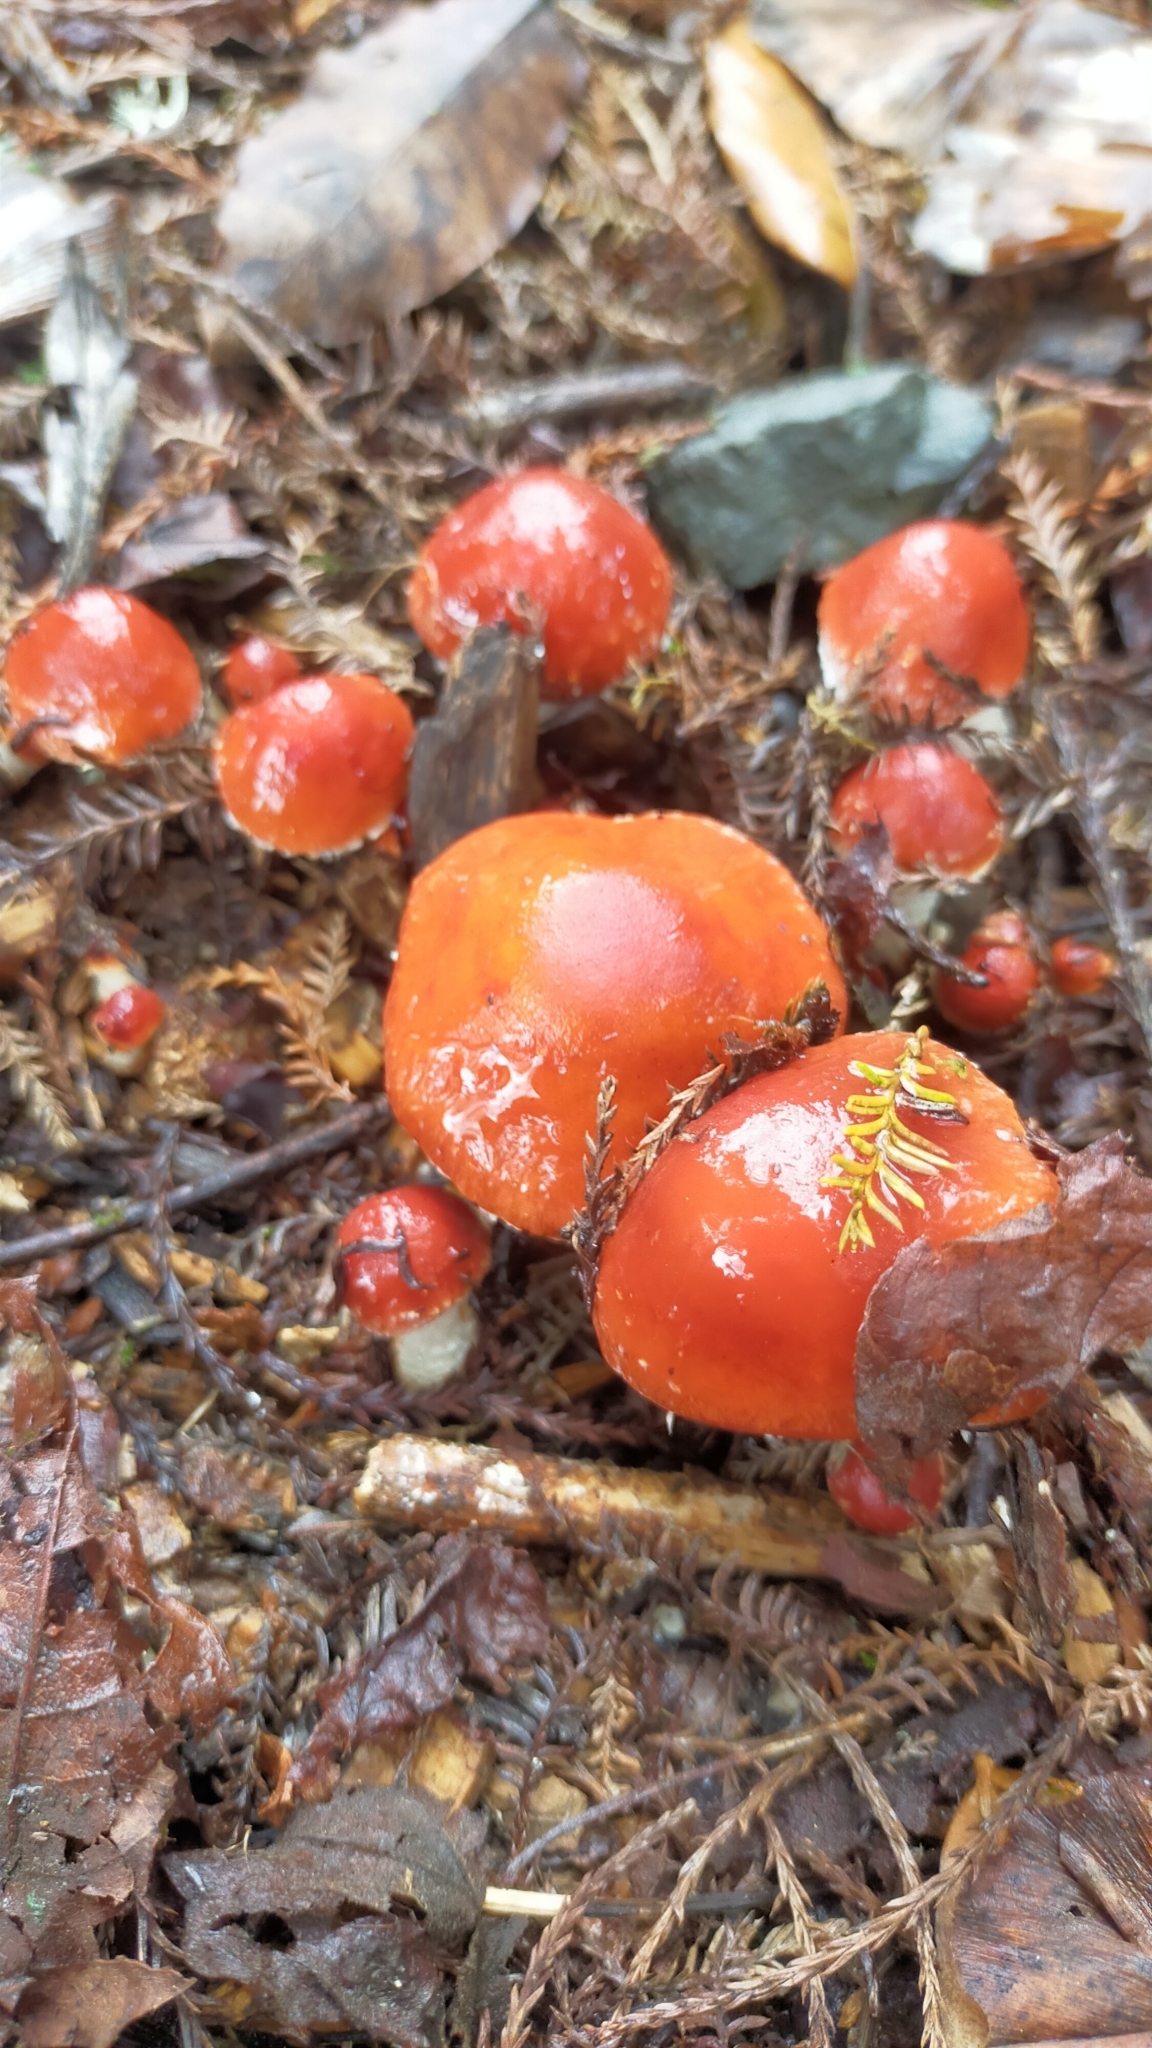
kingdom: Fungi
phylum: Basidiomycota
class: Agaricomycetes
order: Agaricales
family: Strophariaceae
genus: Leratiomyces
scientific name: Leratiomyces ceres
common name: Redlead roundhead
